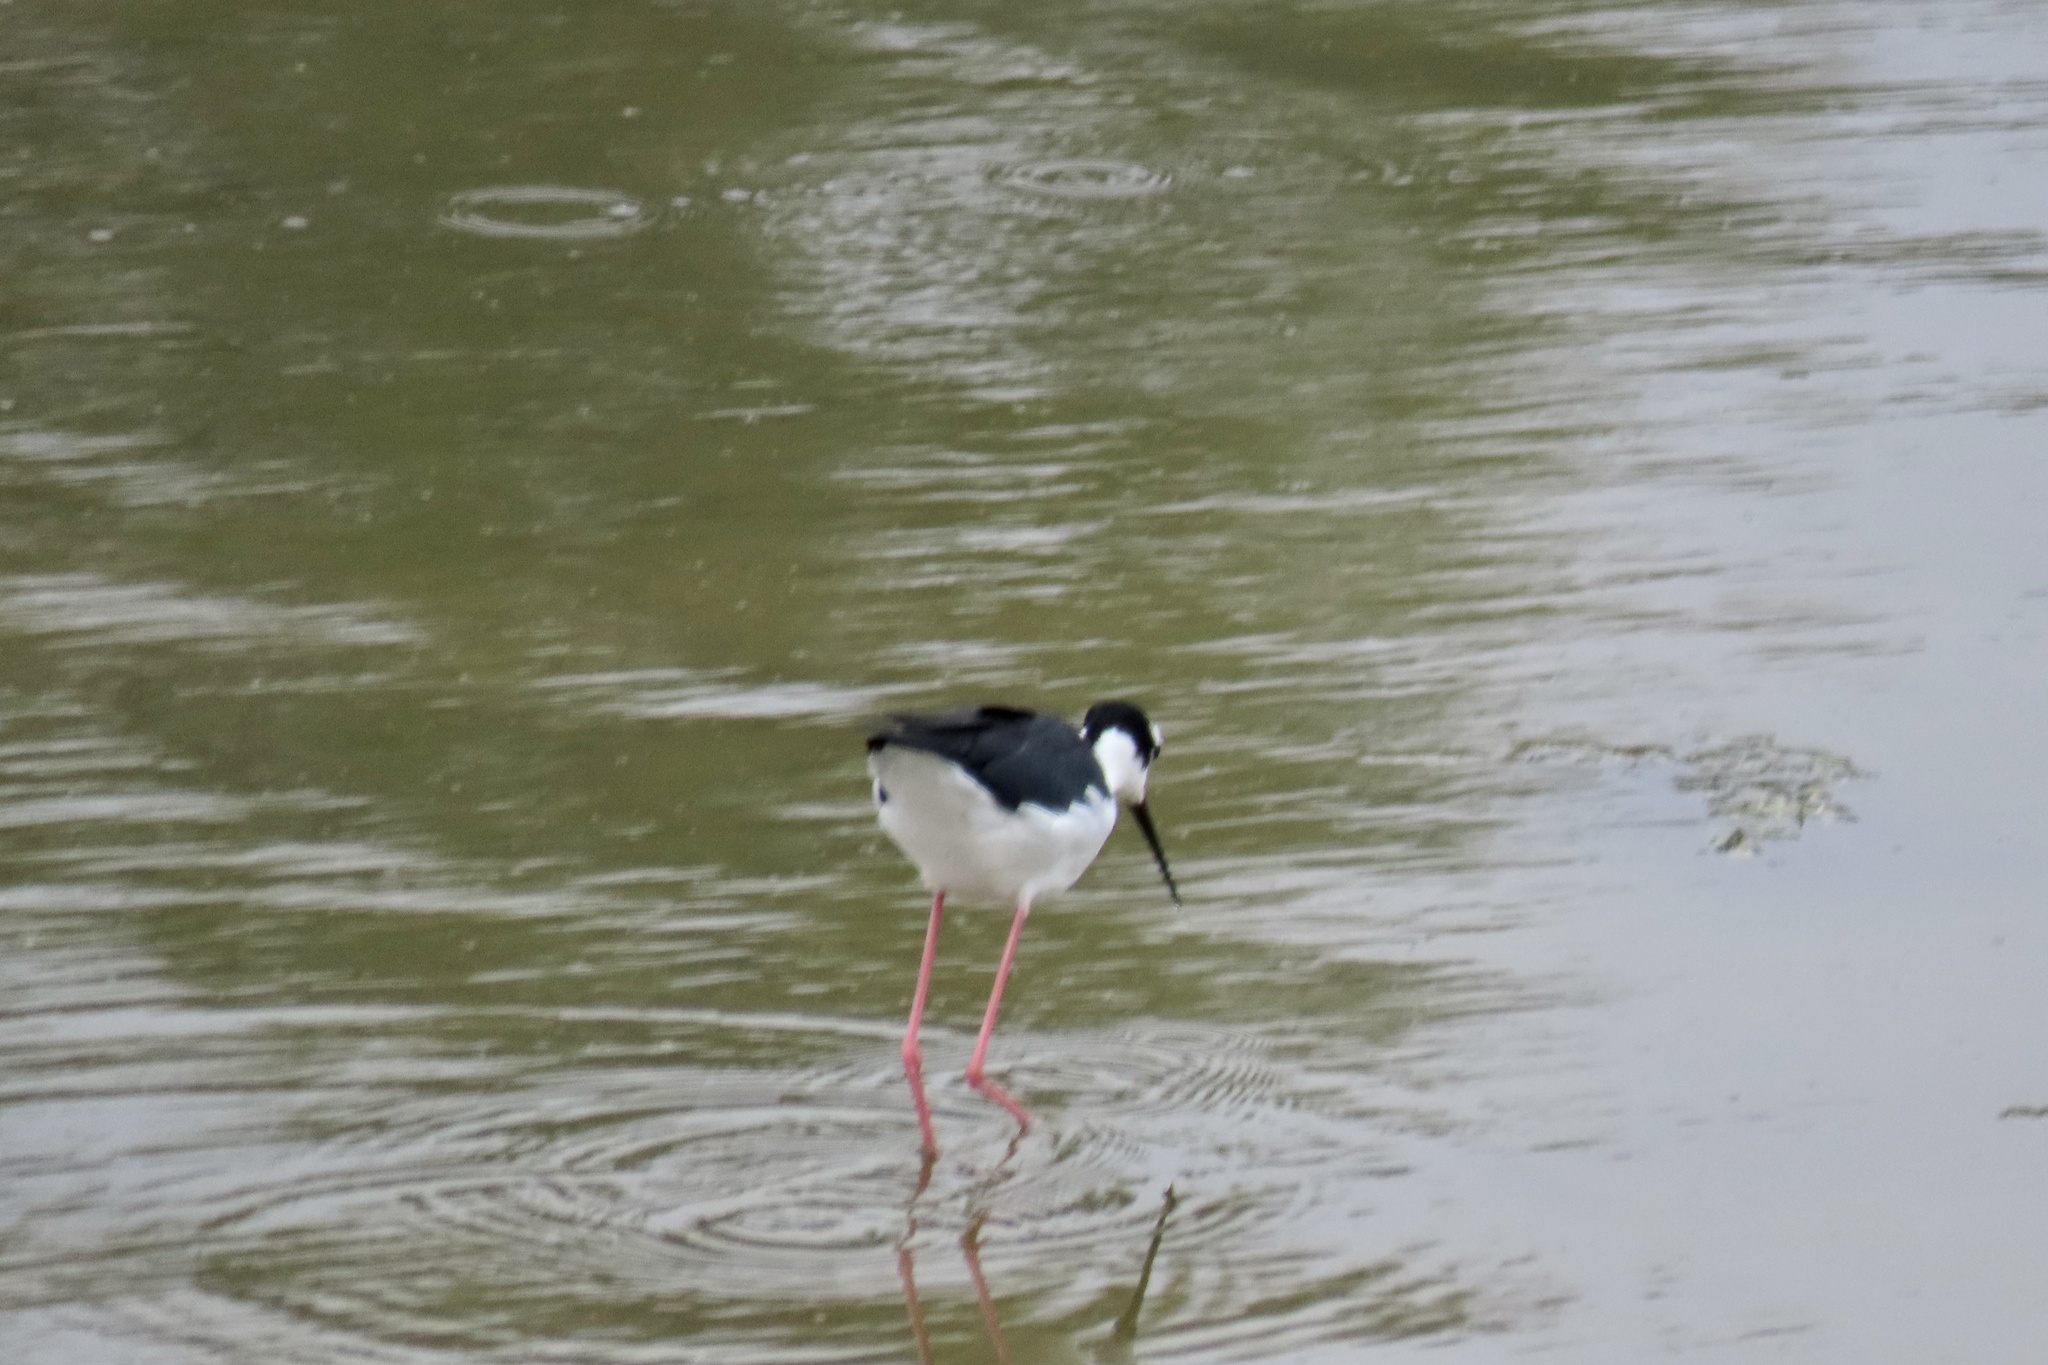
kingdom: Animalia
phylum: Chordata
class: Aves
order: Charadriiformes
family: Recurvirostridae
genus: Himantopus
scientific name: Himantopus mexicanus
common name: Black-necked stilt
